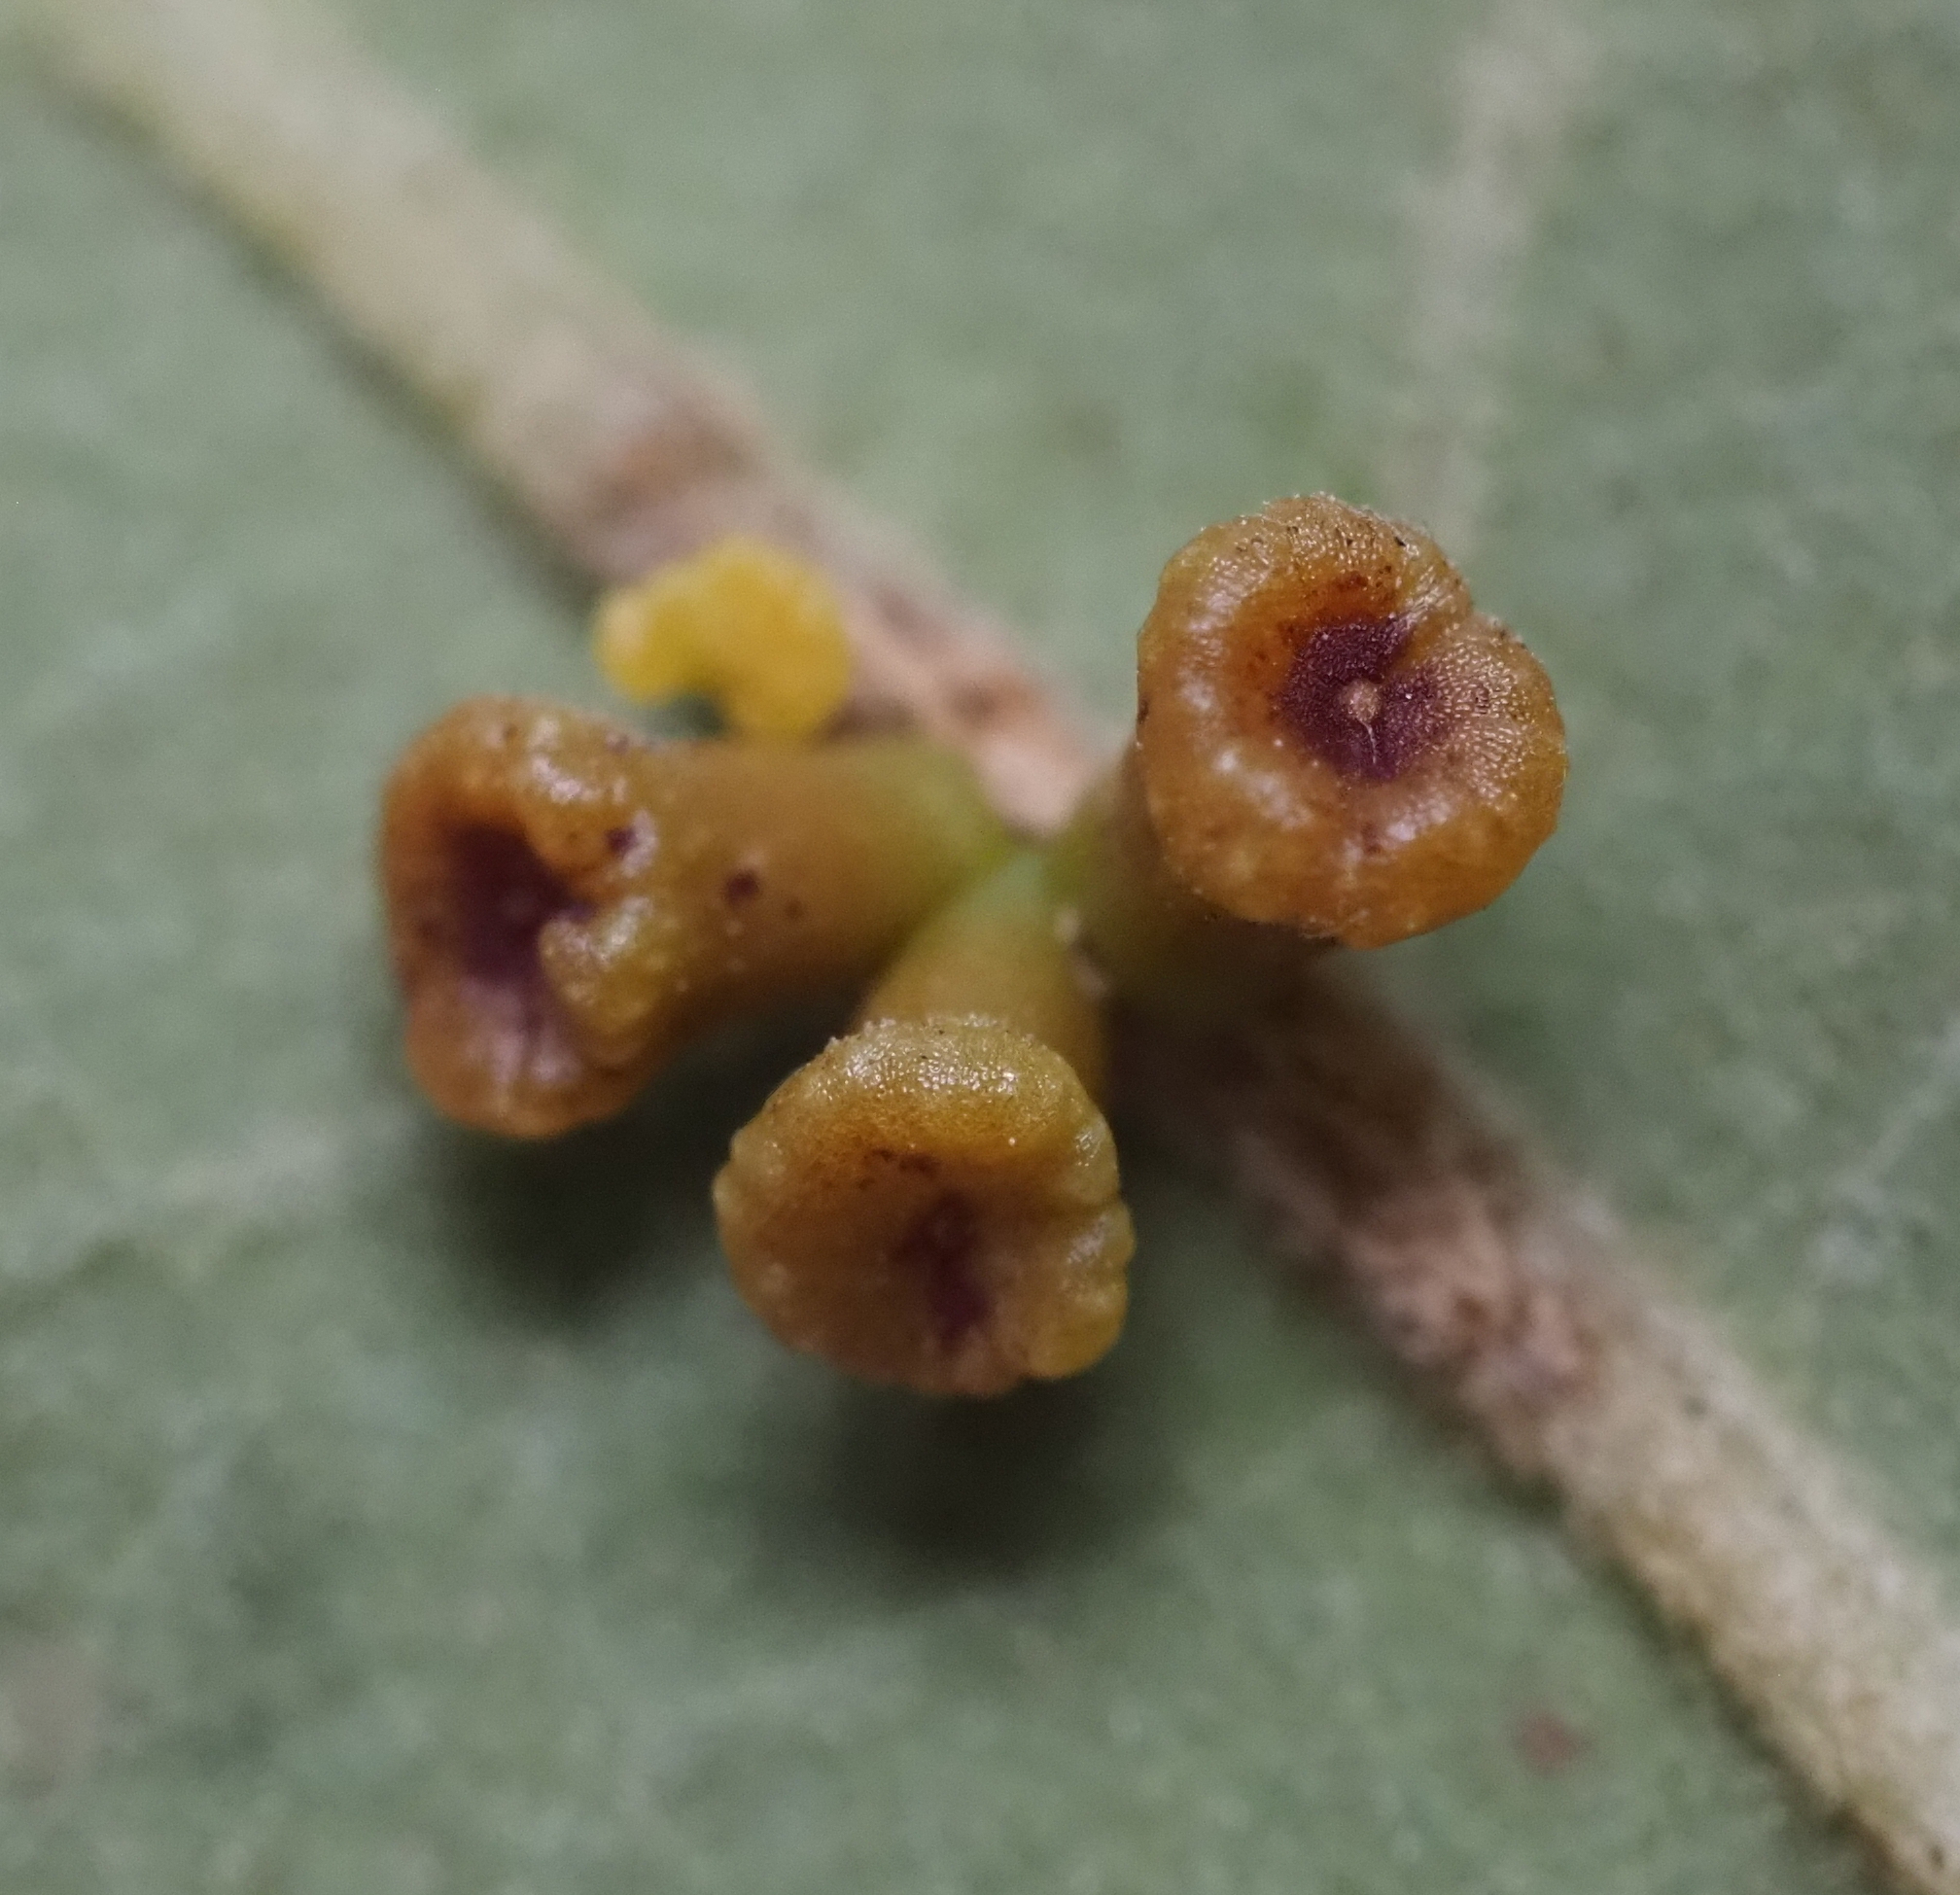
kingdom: Animalia
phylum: Arthropoda
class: Insecta
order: Hymenoptera
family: Cynipidae
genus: Andricus
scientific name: Andricus lustrans
